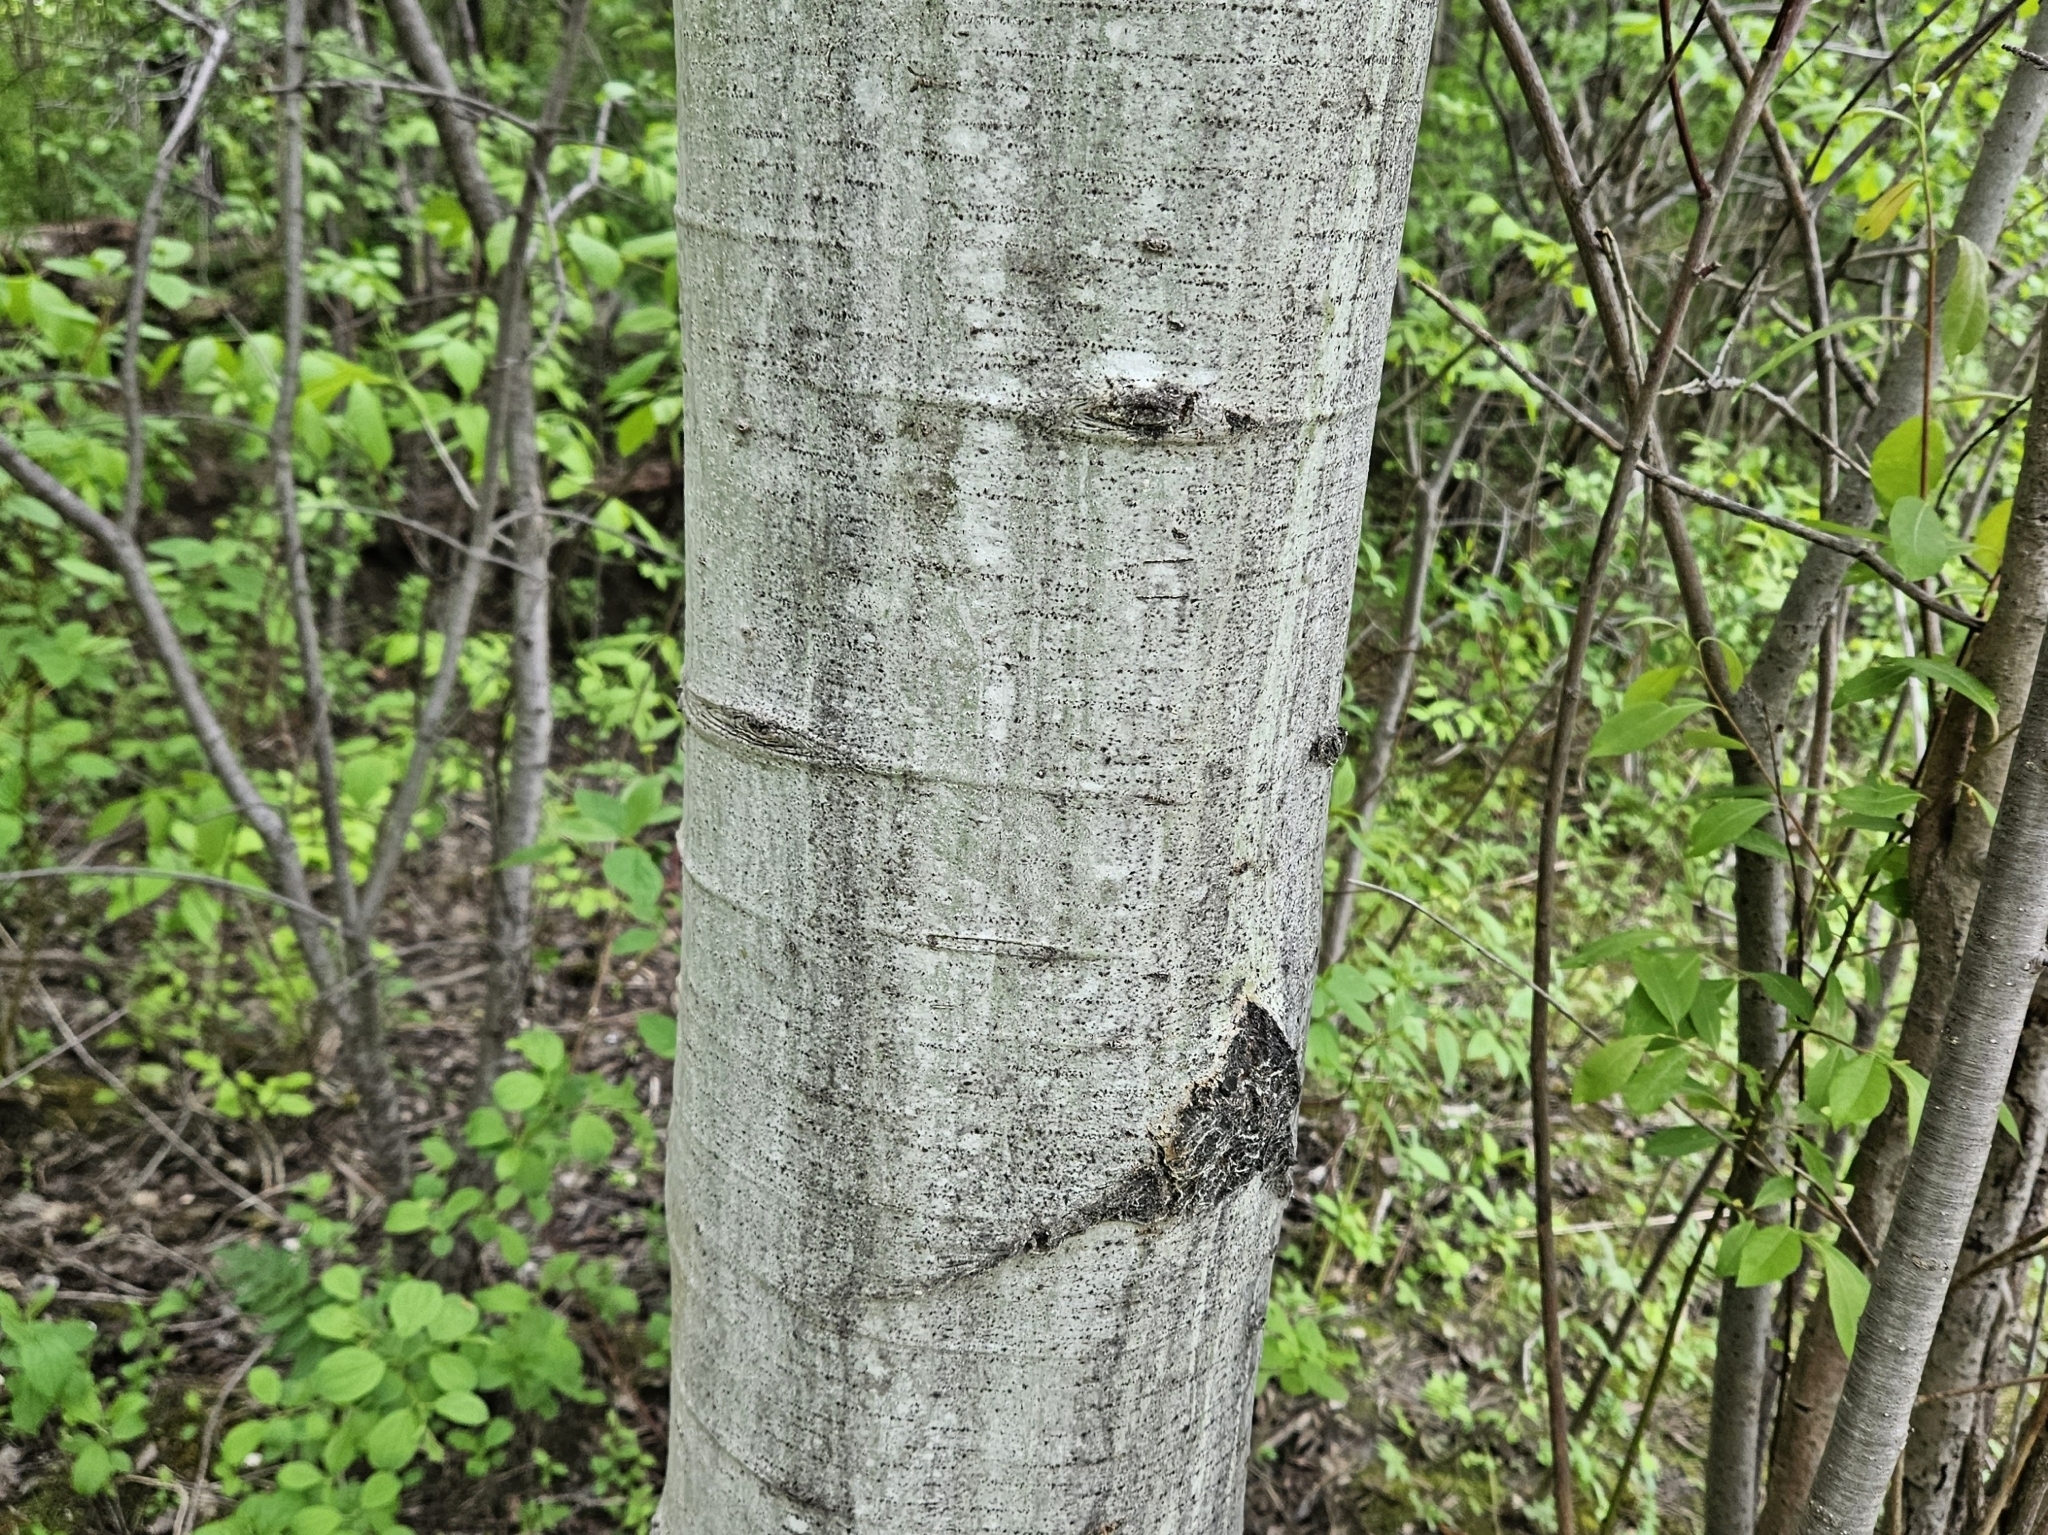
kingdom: Plantae
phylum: Tracheophyta
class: Magnoliopsida
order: Malpighiales
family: Salicaceae
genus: Populus
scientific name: Populus tremuloides
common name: Quaking aspen
